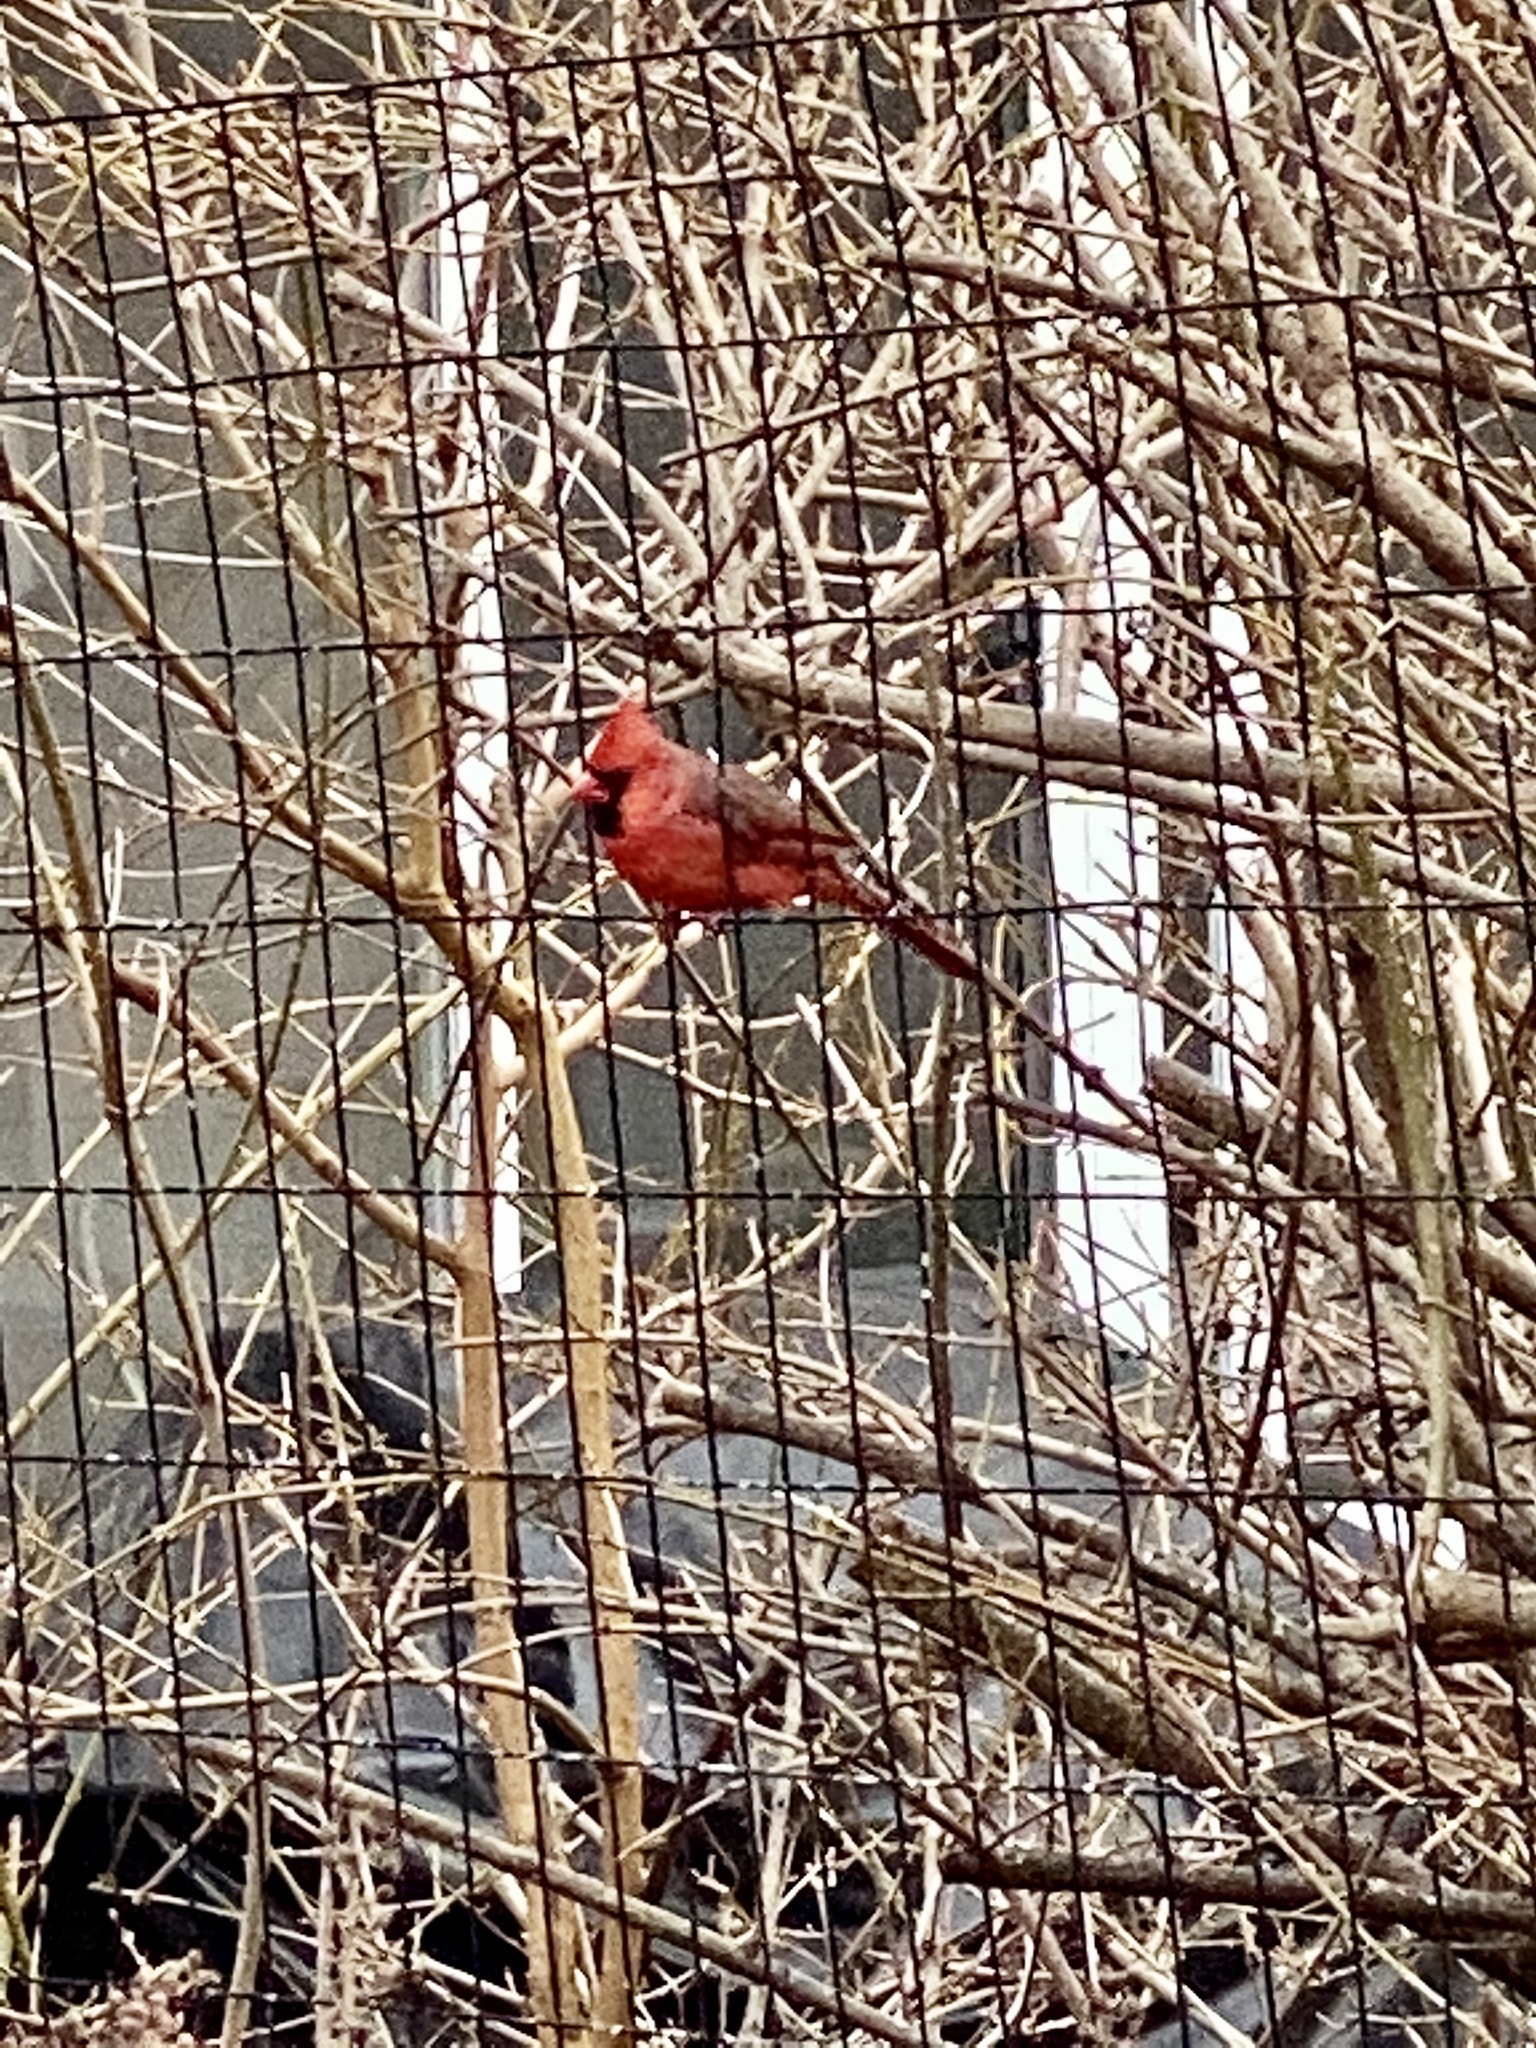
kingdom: Animalia
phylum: Chordata
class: Aves
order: Passeriformes
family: Cardinalidae
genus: Cardinalis
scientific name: Cardinalis cardinalis
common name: Northern cardinal
